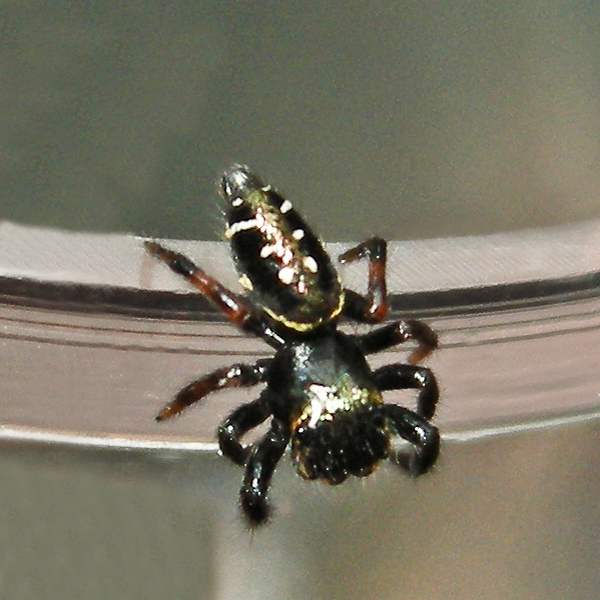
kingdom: Animalia
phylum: Arthropoda
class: Arachnida
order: Araneae
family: Salticidae
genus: Paraphidippus
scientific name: Paraphidippus aurantius
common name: Jumping spiders
